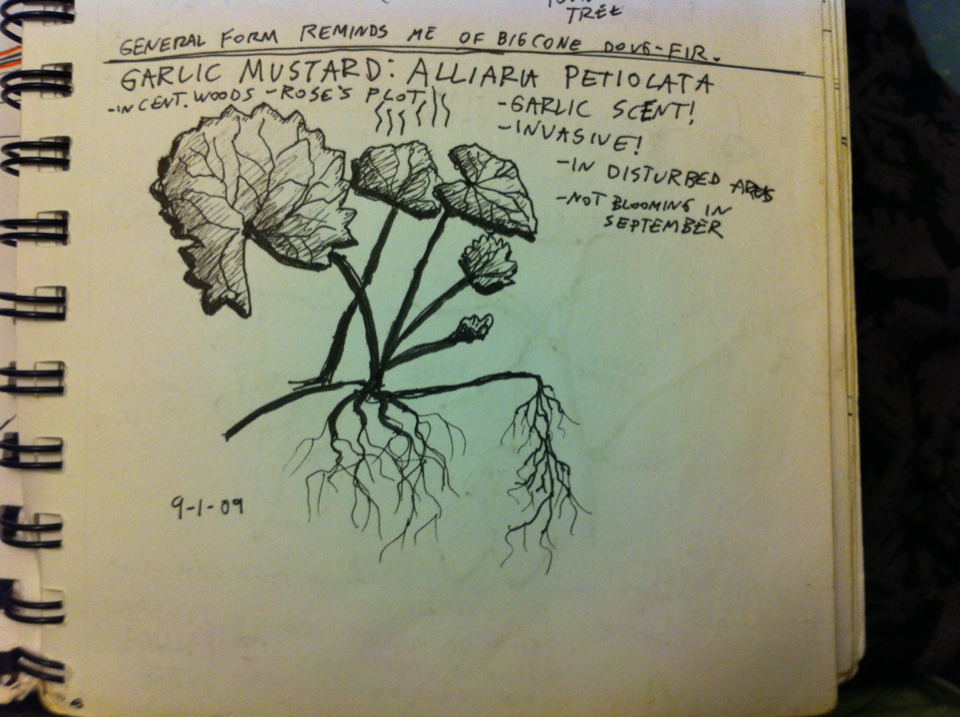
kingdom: Plantae
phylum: Tracheophyta
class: Magnoliopsida
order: Brassicales
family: Brassicaceae
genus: Alliaria
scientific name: Alliaria petiolata
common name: Garlic mustard
